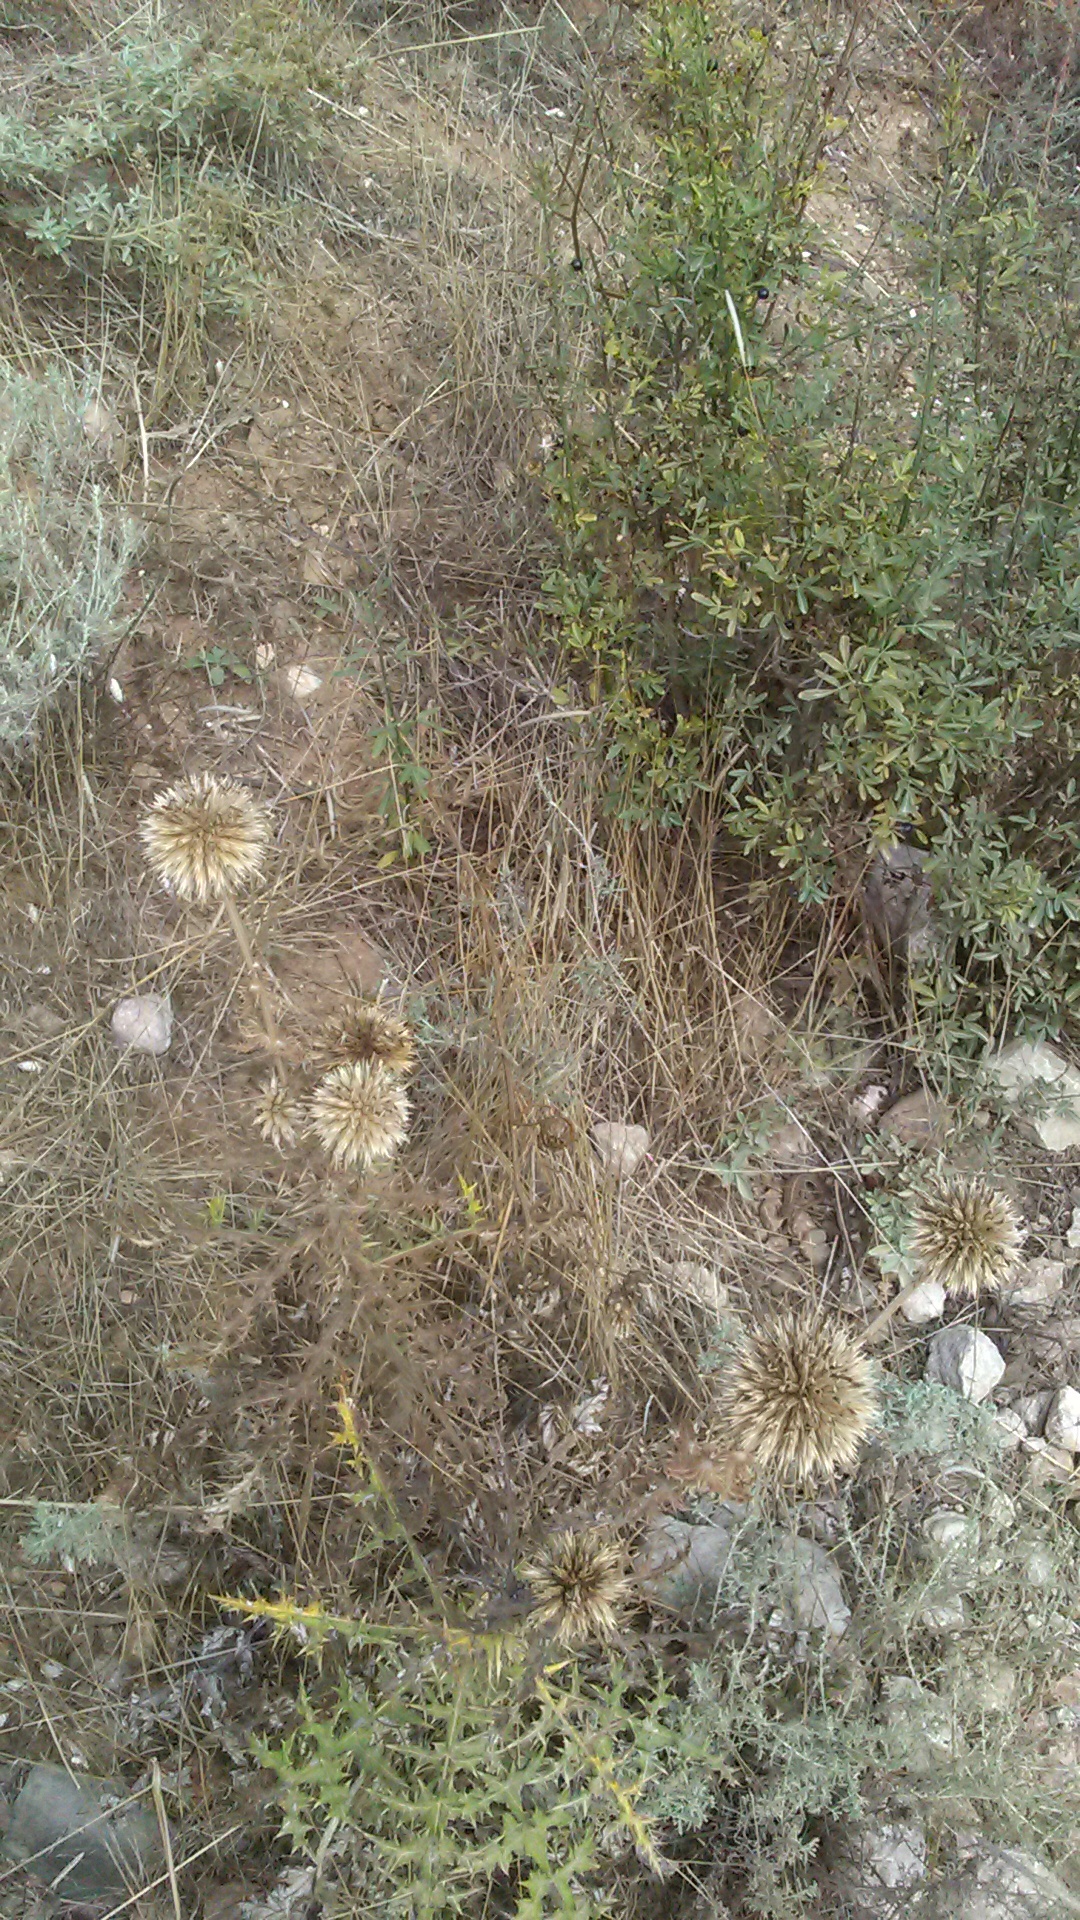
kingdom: Plantae
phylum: Tracheophyta
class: Magnoliopsida
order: Asterales
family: Asteraceae
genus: Echinops
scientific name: Echinops ritro
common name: Globe thistle
